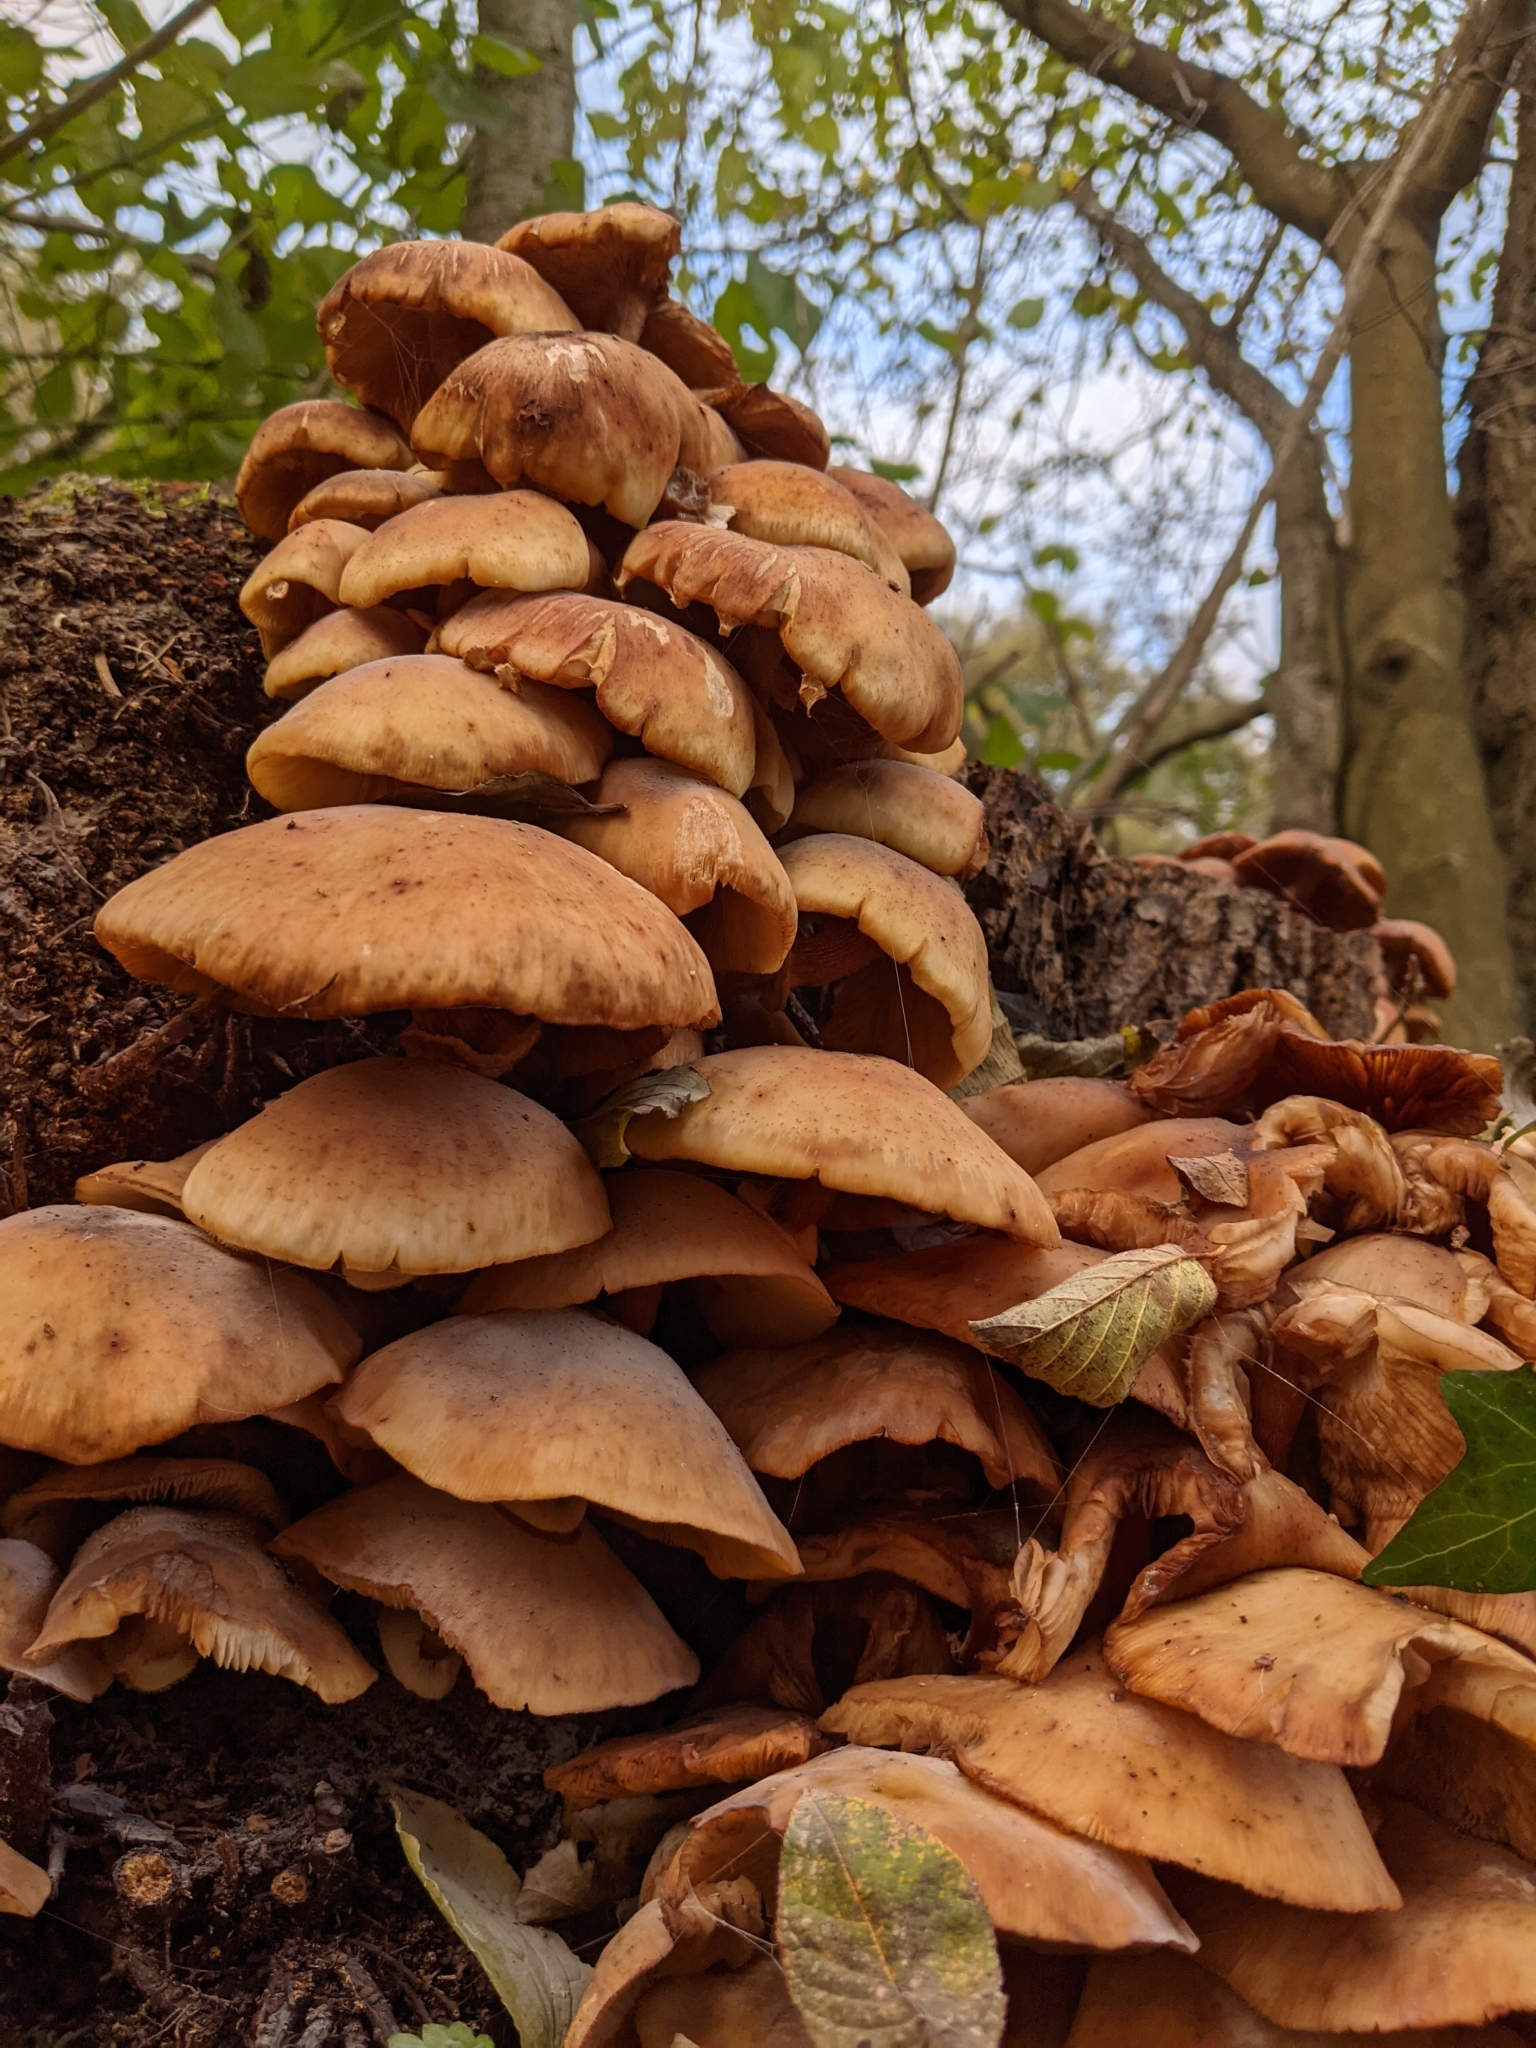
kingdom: Fungi
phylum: Basidiomycota
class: Agaricomycetes
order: Agaricales
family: Physalacriaceae
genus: Armillaria
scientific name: Armillaria mellea
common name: Honey fungus
